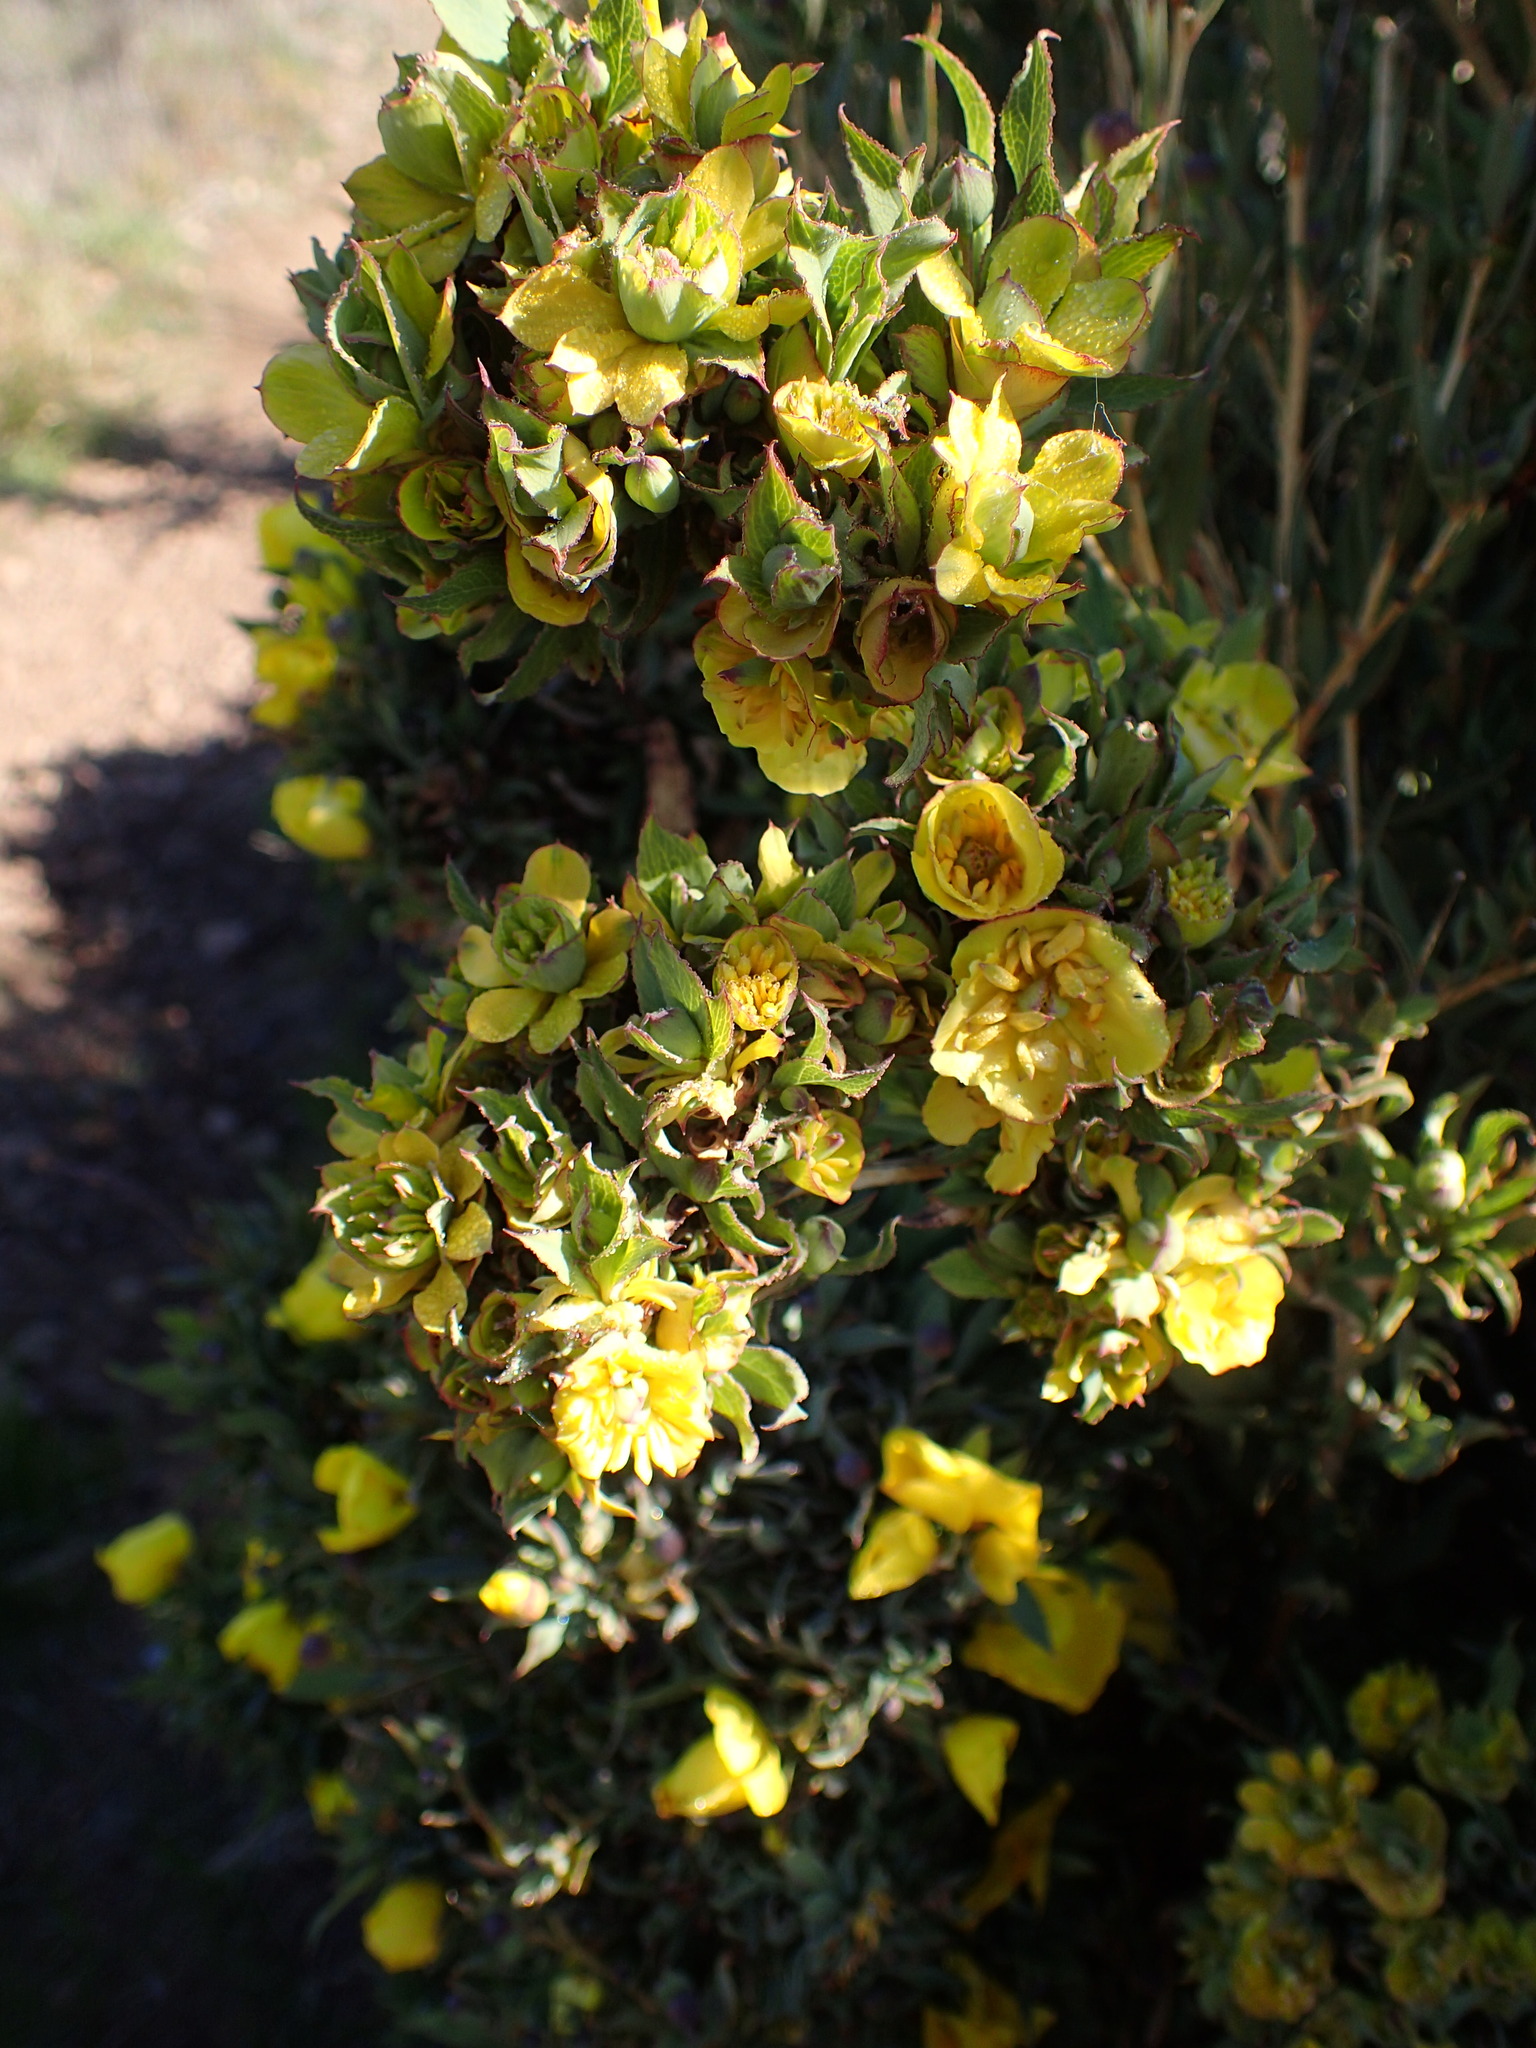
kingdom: Plantae
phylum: Tracheophyta
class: Magnoliopsida
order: Ranunculales
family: Papaveraceae
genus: Dendromecon
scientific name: Dendromecon rigida
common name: Tree poppy
